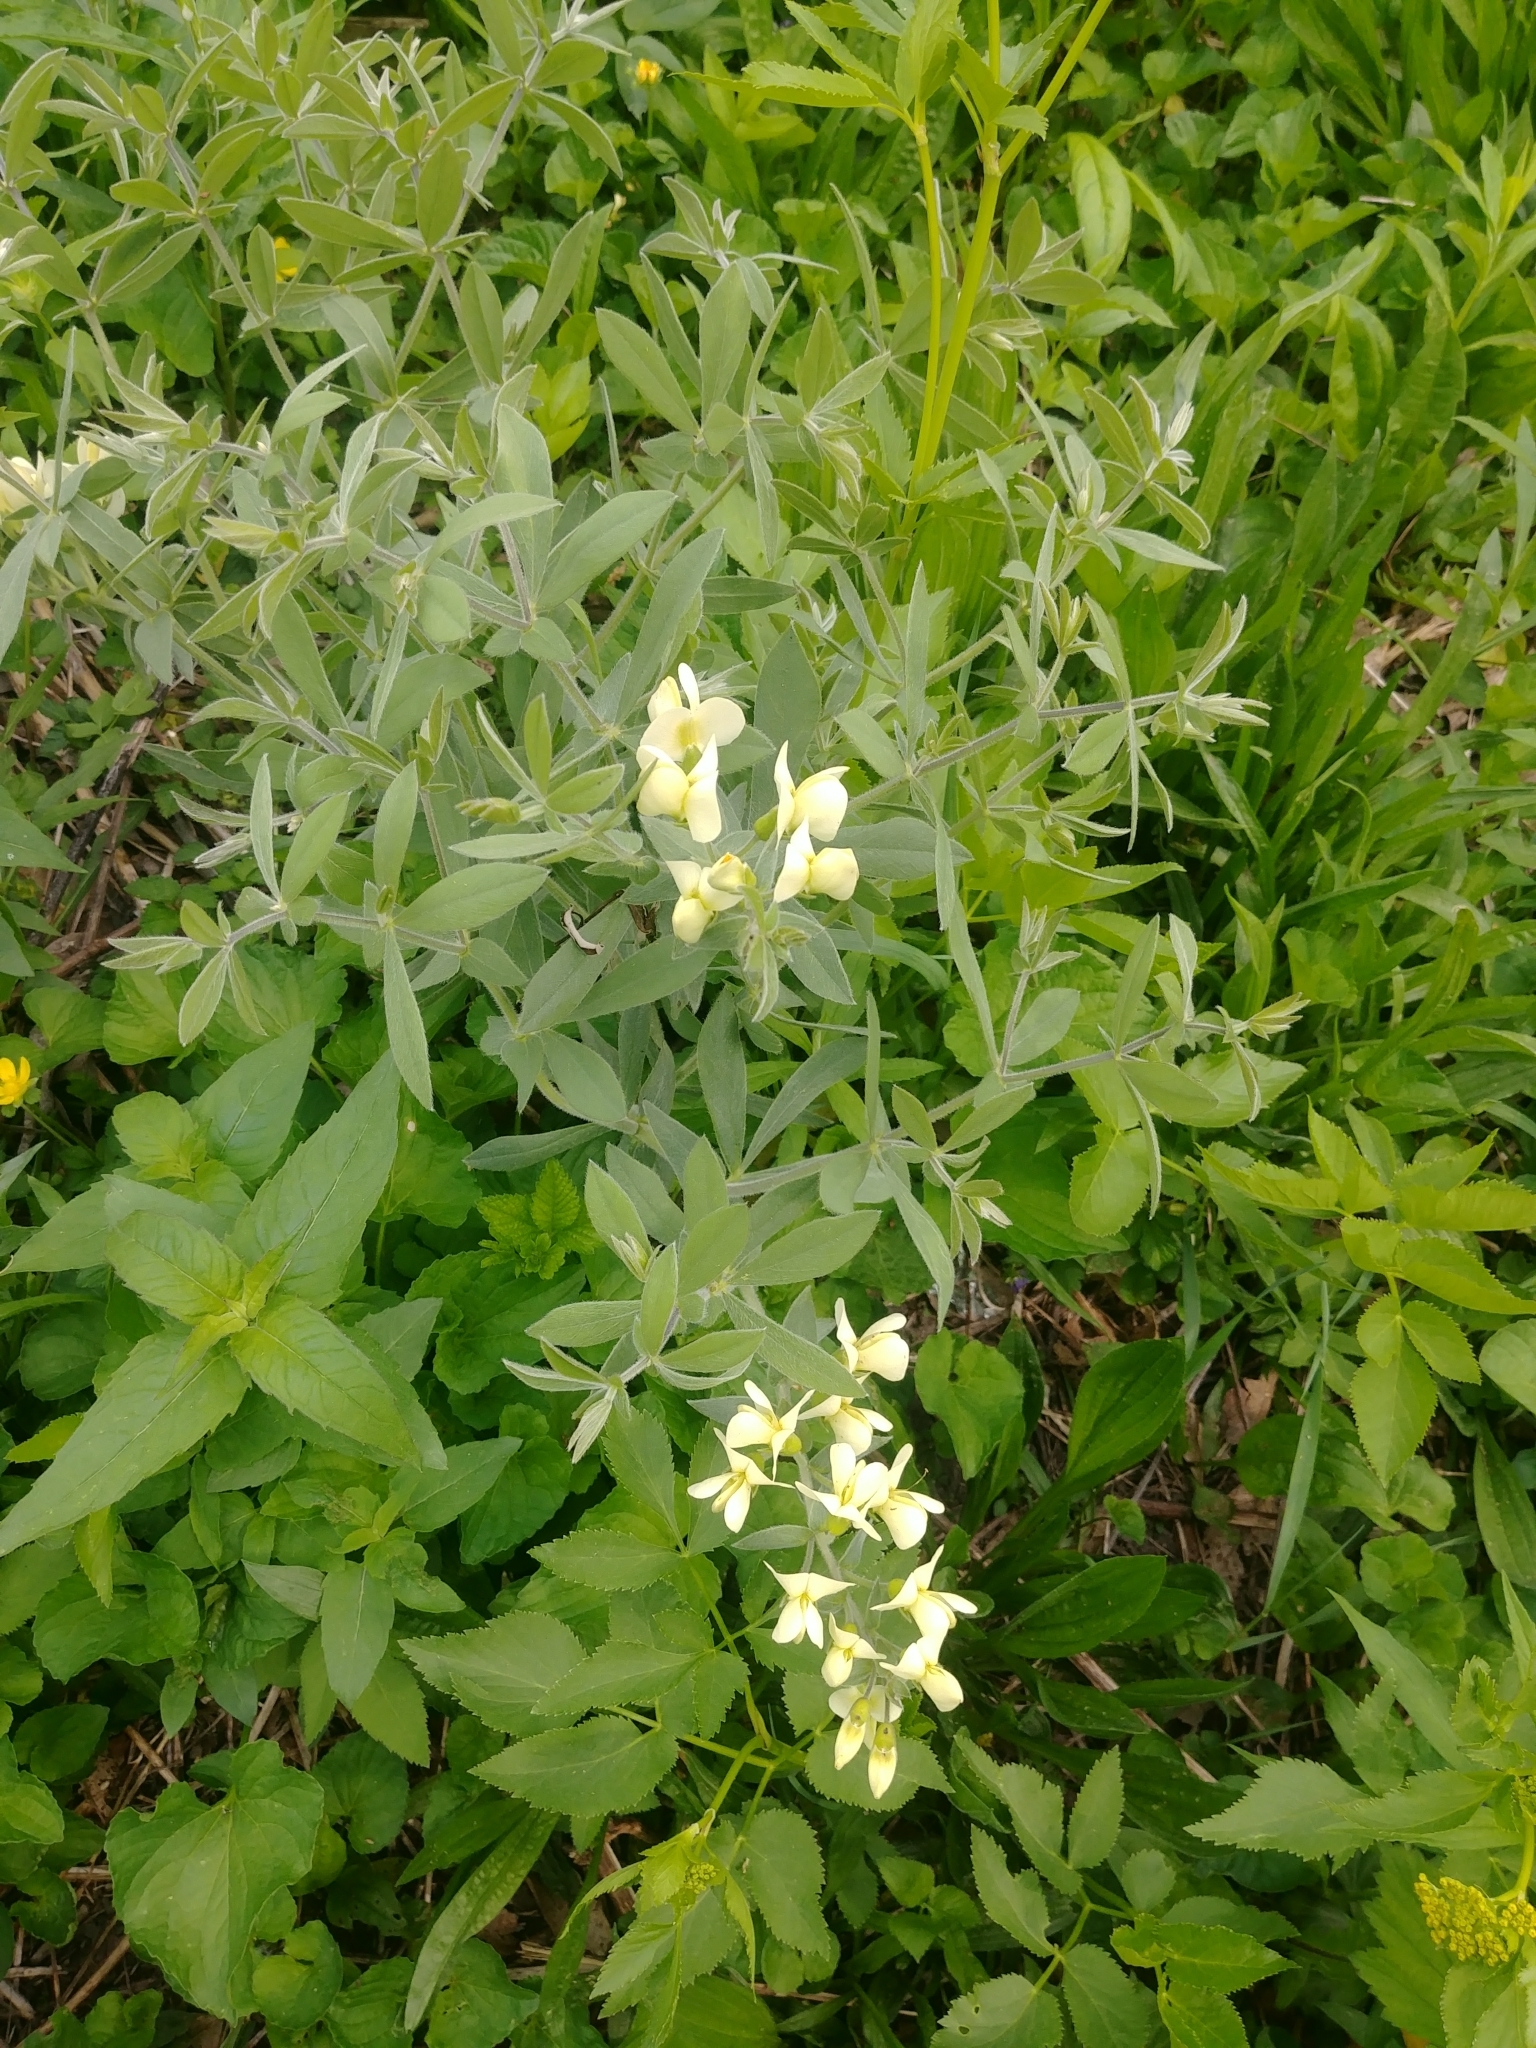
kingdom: Plantae
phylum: Tracheophyta
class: Magnoliopsida
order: Fabales
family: Fabaceae
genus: Baptisia
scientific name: Baptisia bracteata
